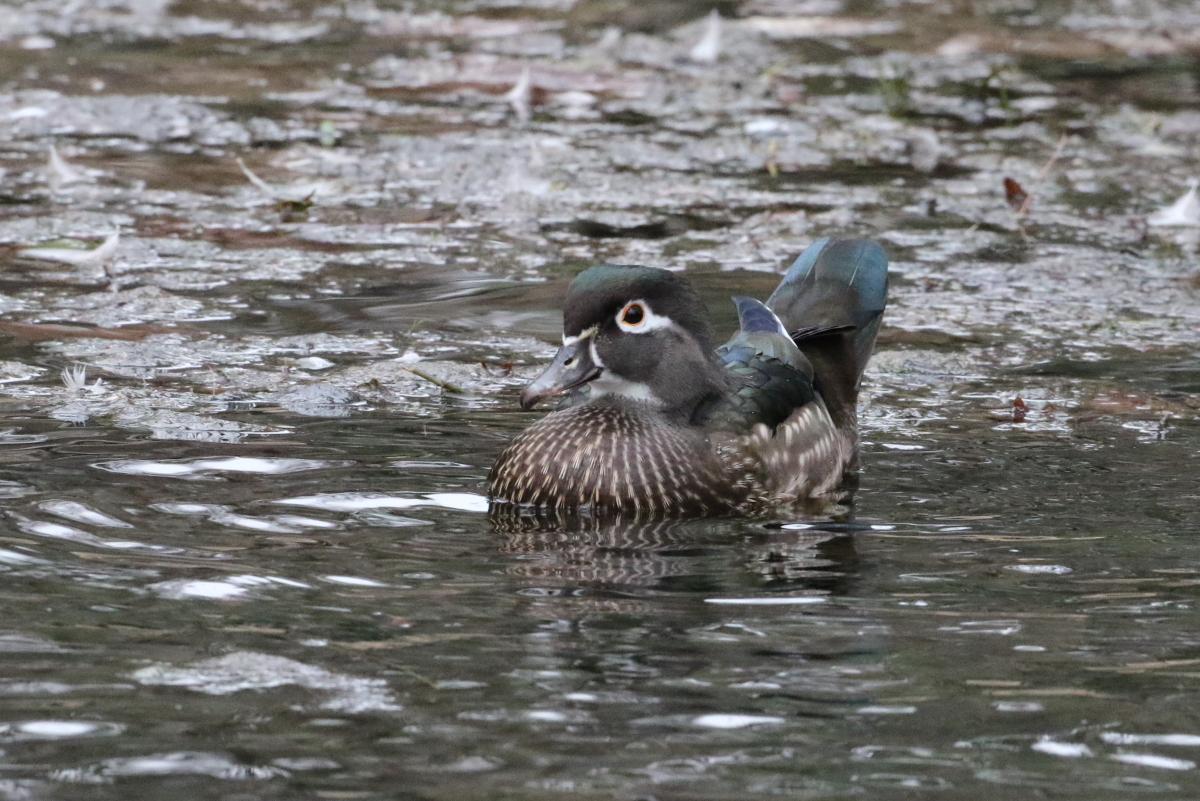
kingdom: Animalia
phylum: Chordata
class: Aves
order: Anseriformes
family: Anatidae
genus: Aix
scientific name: Aix sponsa
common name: Wood duck
